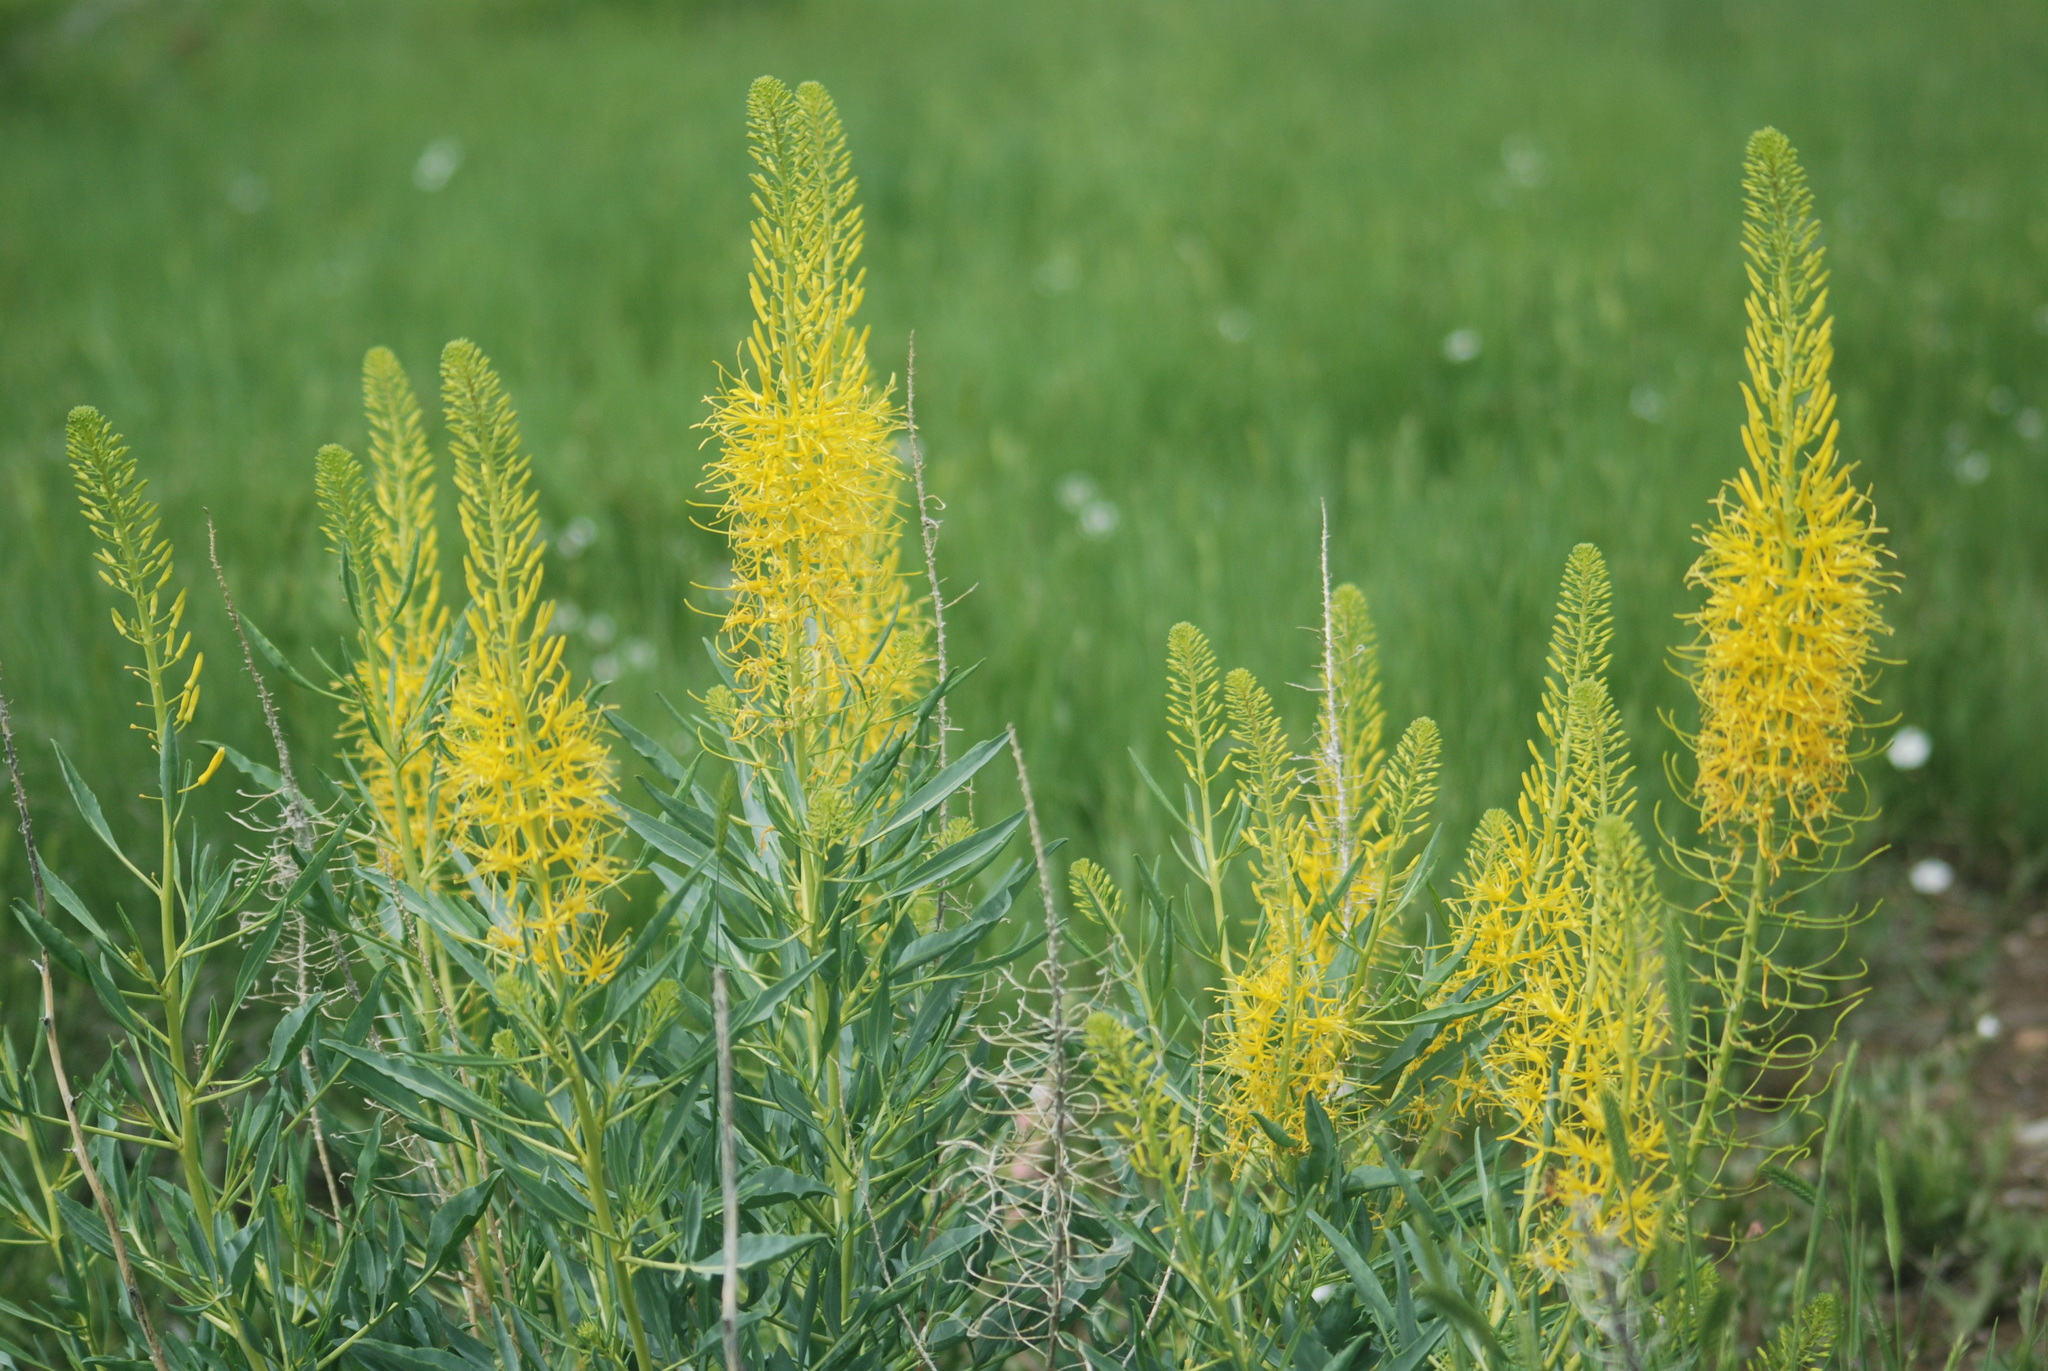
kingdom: Plantae
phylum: Tracheophyta
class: Magnoliopsida
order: Brassicales
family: Brassicaceae
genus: Stanleya
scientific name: Stanleya pinnata
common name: Prince's-plume
